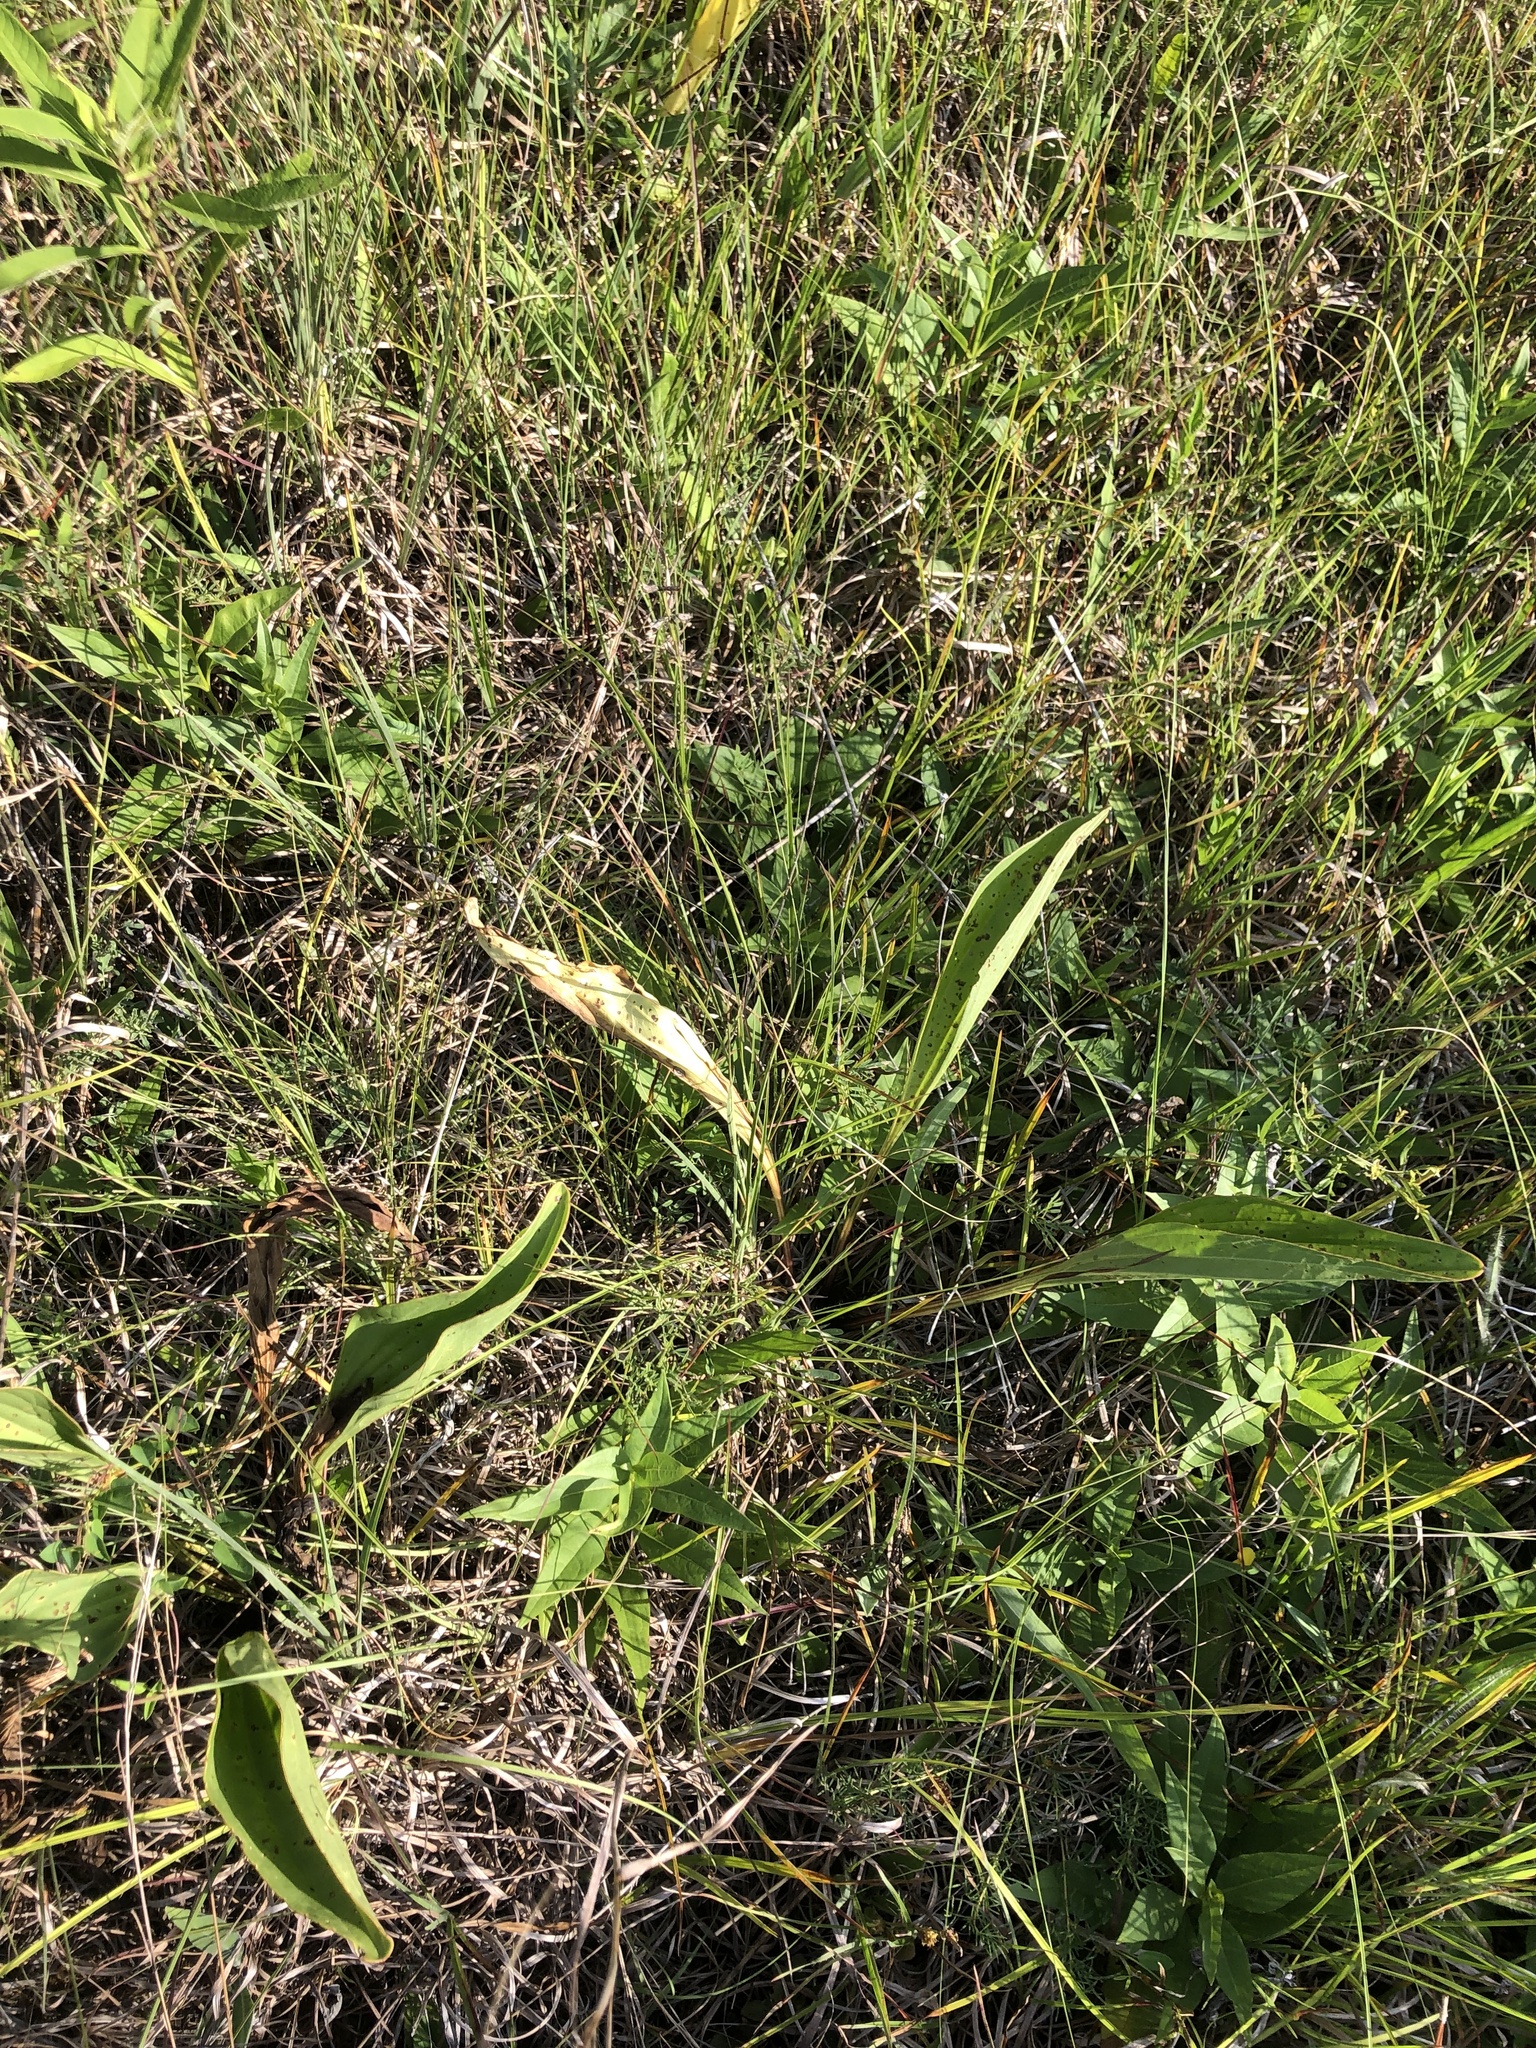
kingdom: Plantae
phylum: Tracheophyta
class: Magnoliopsida
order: Asterales
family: Asteraceae
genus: Arnoglossum
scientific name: Arnoglossum plantagineum
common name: Groove-stemmed indian-plantain
